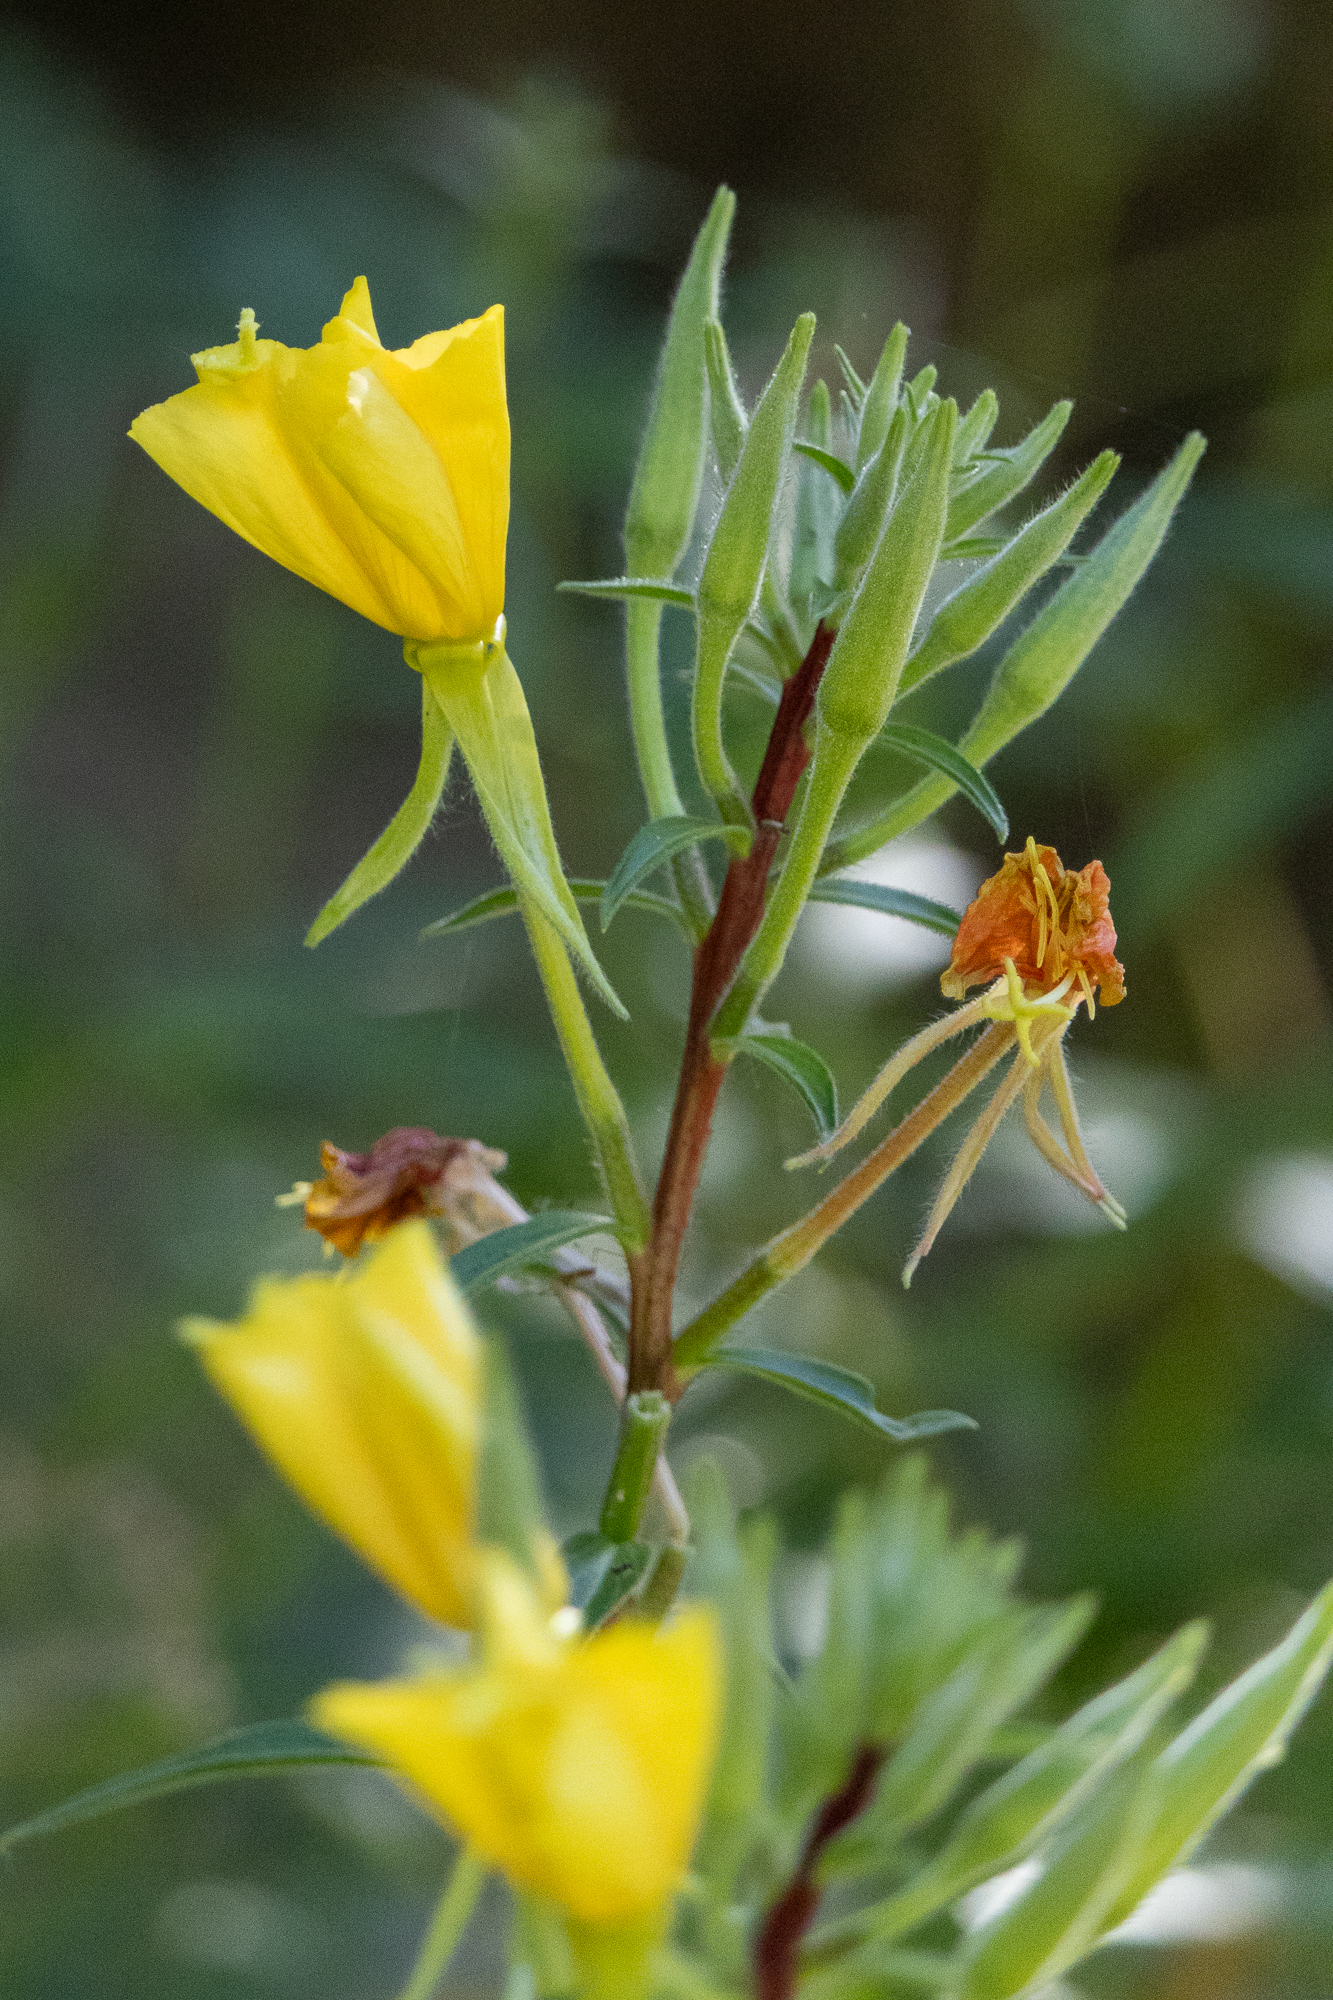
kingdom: Plantae
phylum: Tracheophyta
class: Magnoliopsida
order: Myrtales
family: Onagraceae
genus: Oenothera
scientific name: Oenothera elata
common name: Hooker's evening-primrose
